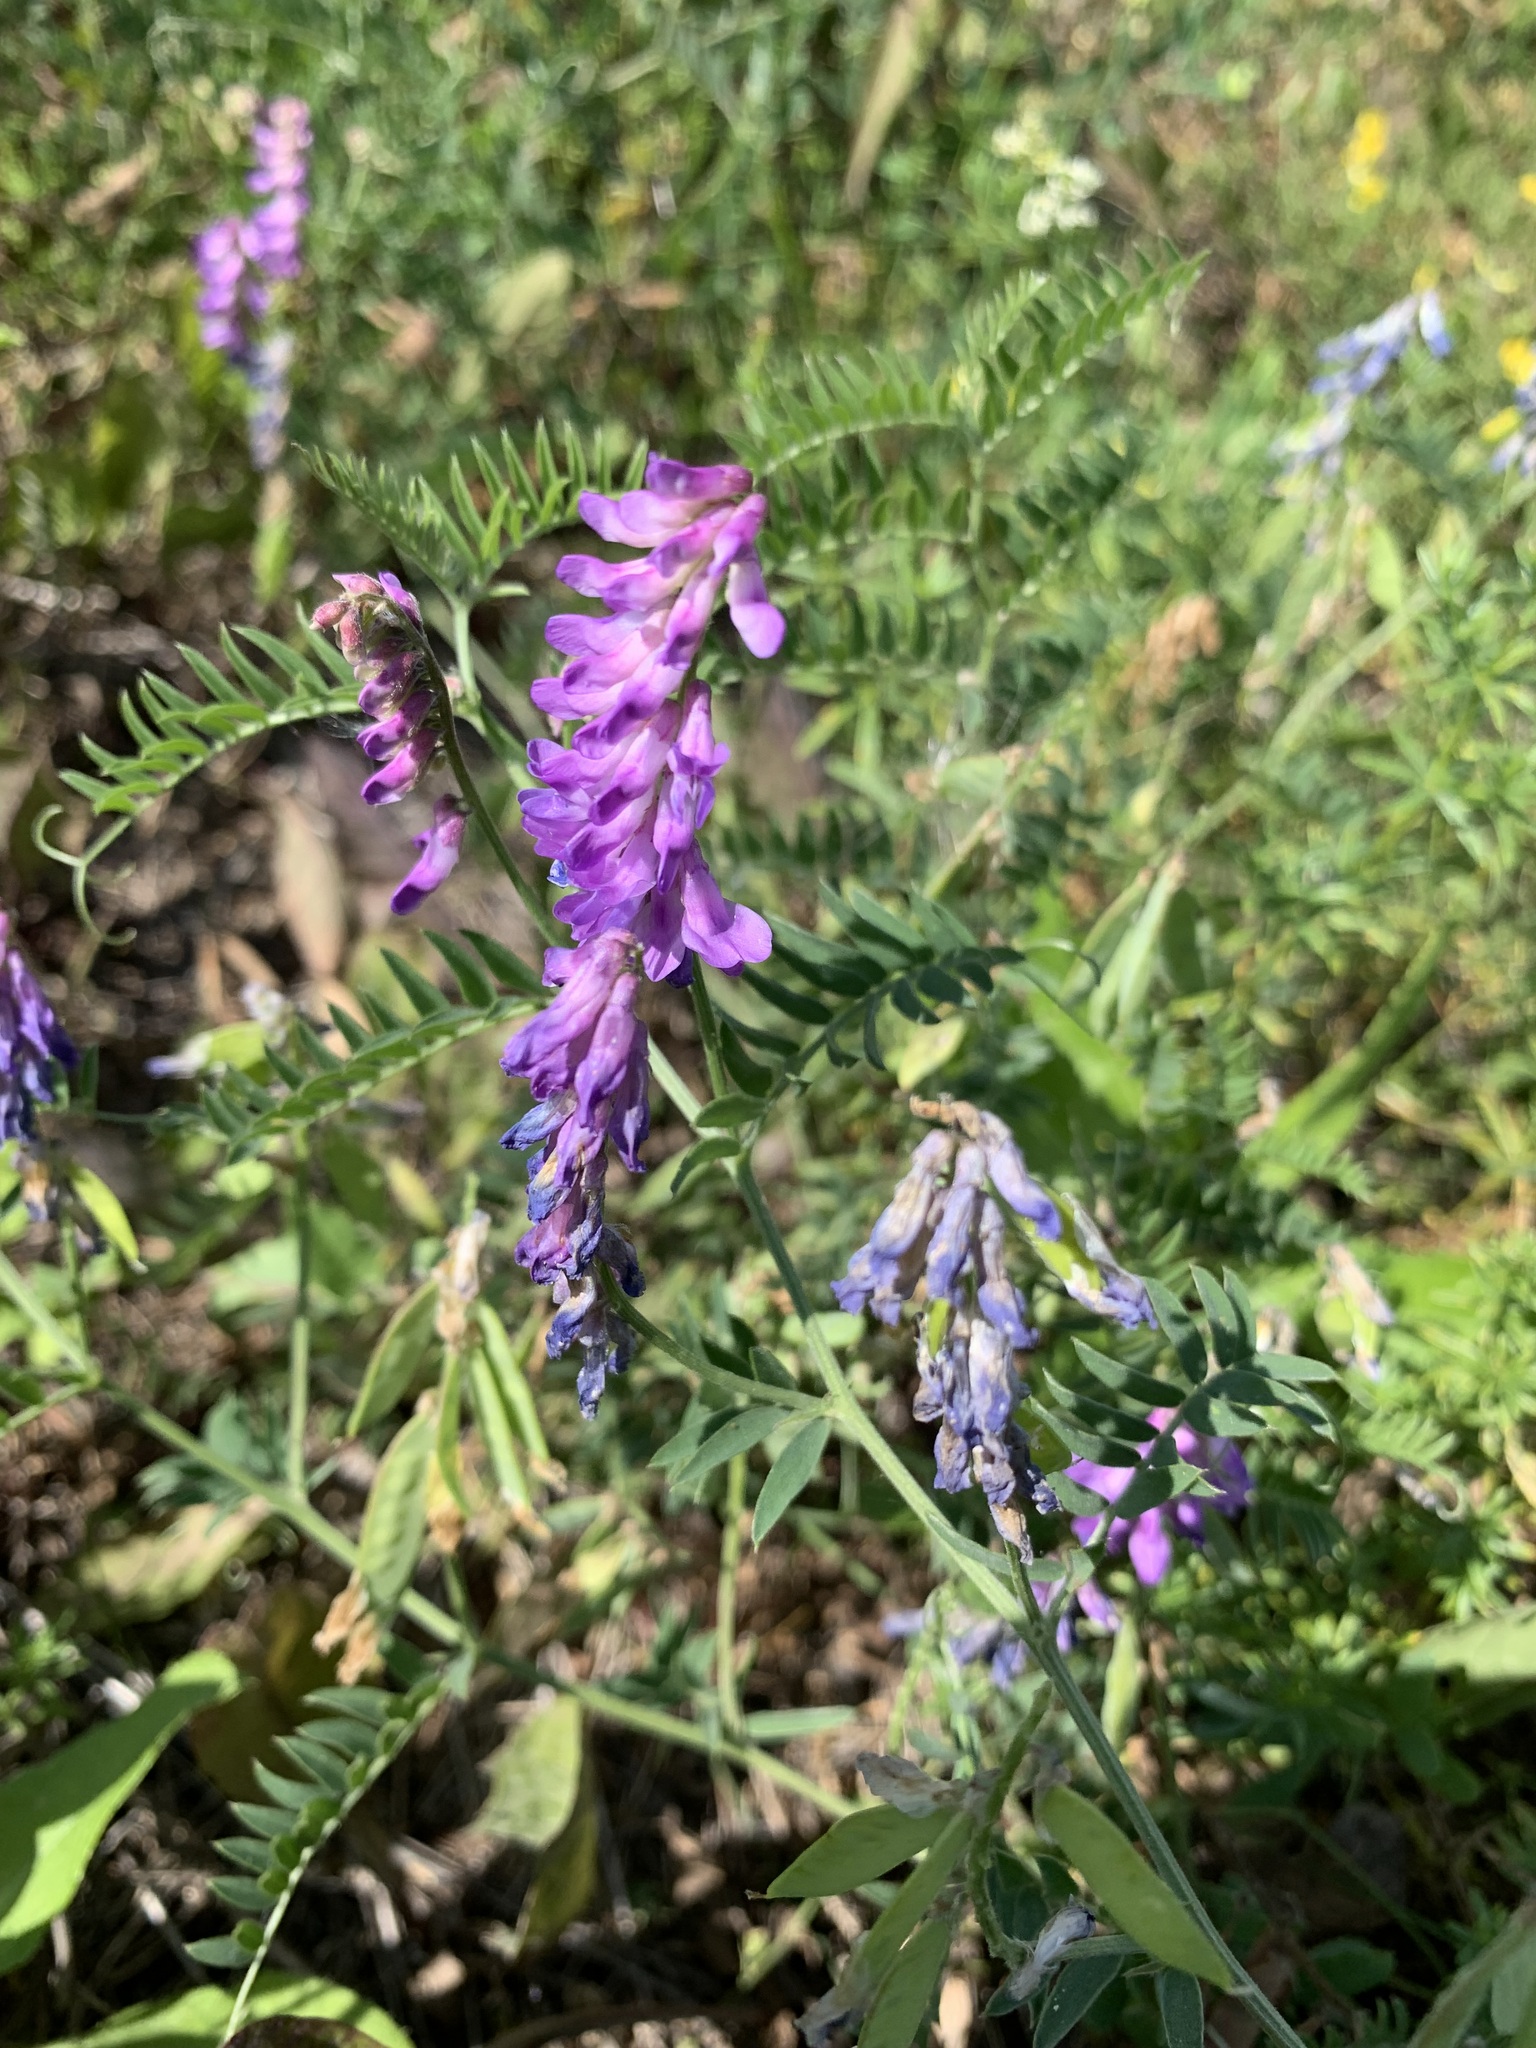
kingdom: Plantae
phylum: Tracheophyta
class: Magnoliopsida
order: Fabales
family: Fabaceae
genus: Vicia
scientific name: Vicia cracca
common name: Bird vetch
